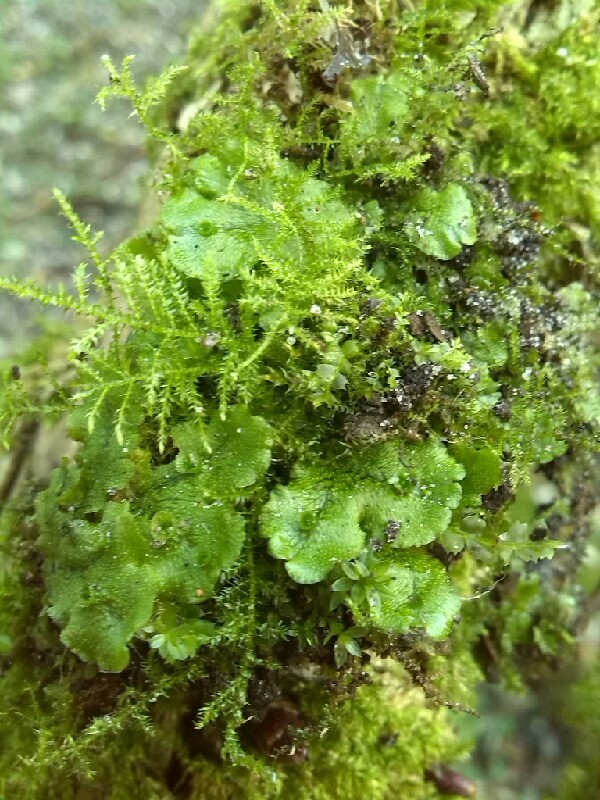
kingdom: Plantae
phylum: Marchantiophyta
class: Marchantiopsida
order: Marchantiales
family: Marchantiaceae
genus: Marchantia
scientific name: Marchantia polymorpha
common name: Common liverwort
